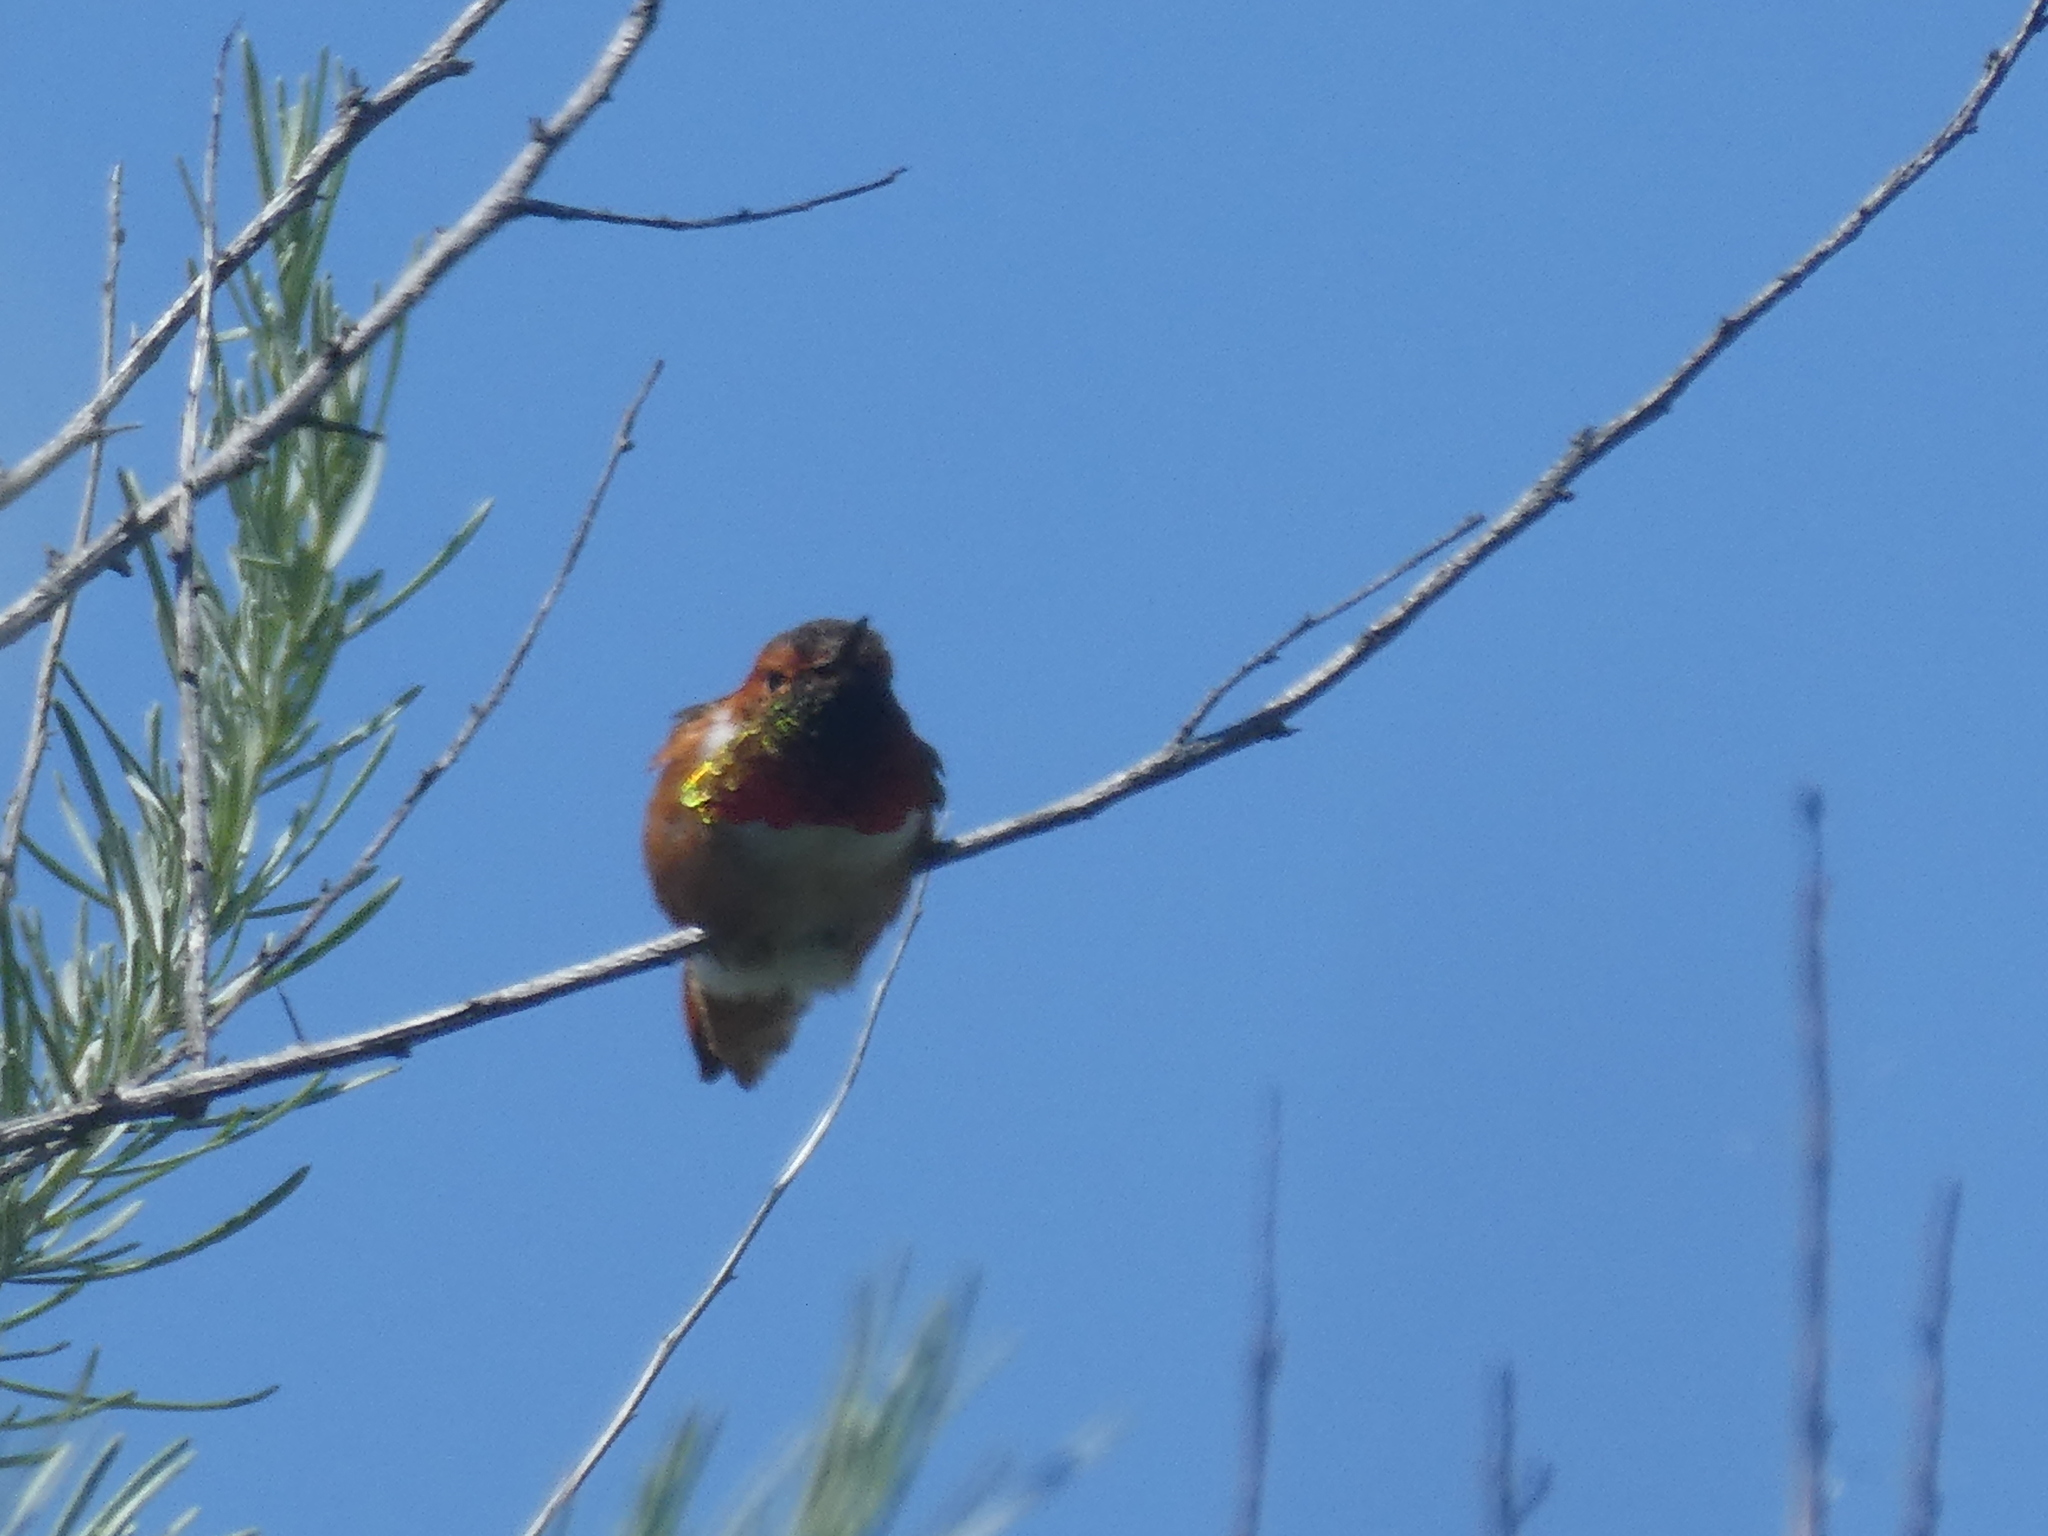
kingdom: Animalia
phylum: Chordata
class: Aves
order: Apodiformes
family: Trochilidae
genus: Selasphorus
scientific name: Selasphorus sasin
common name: Allen's hummingbird
